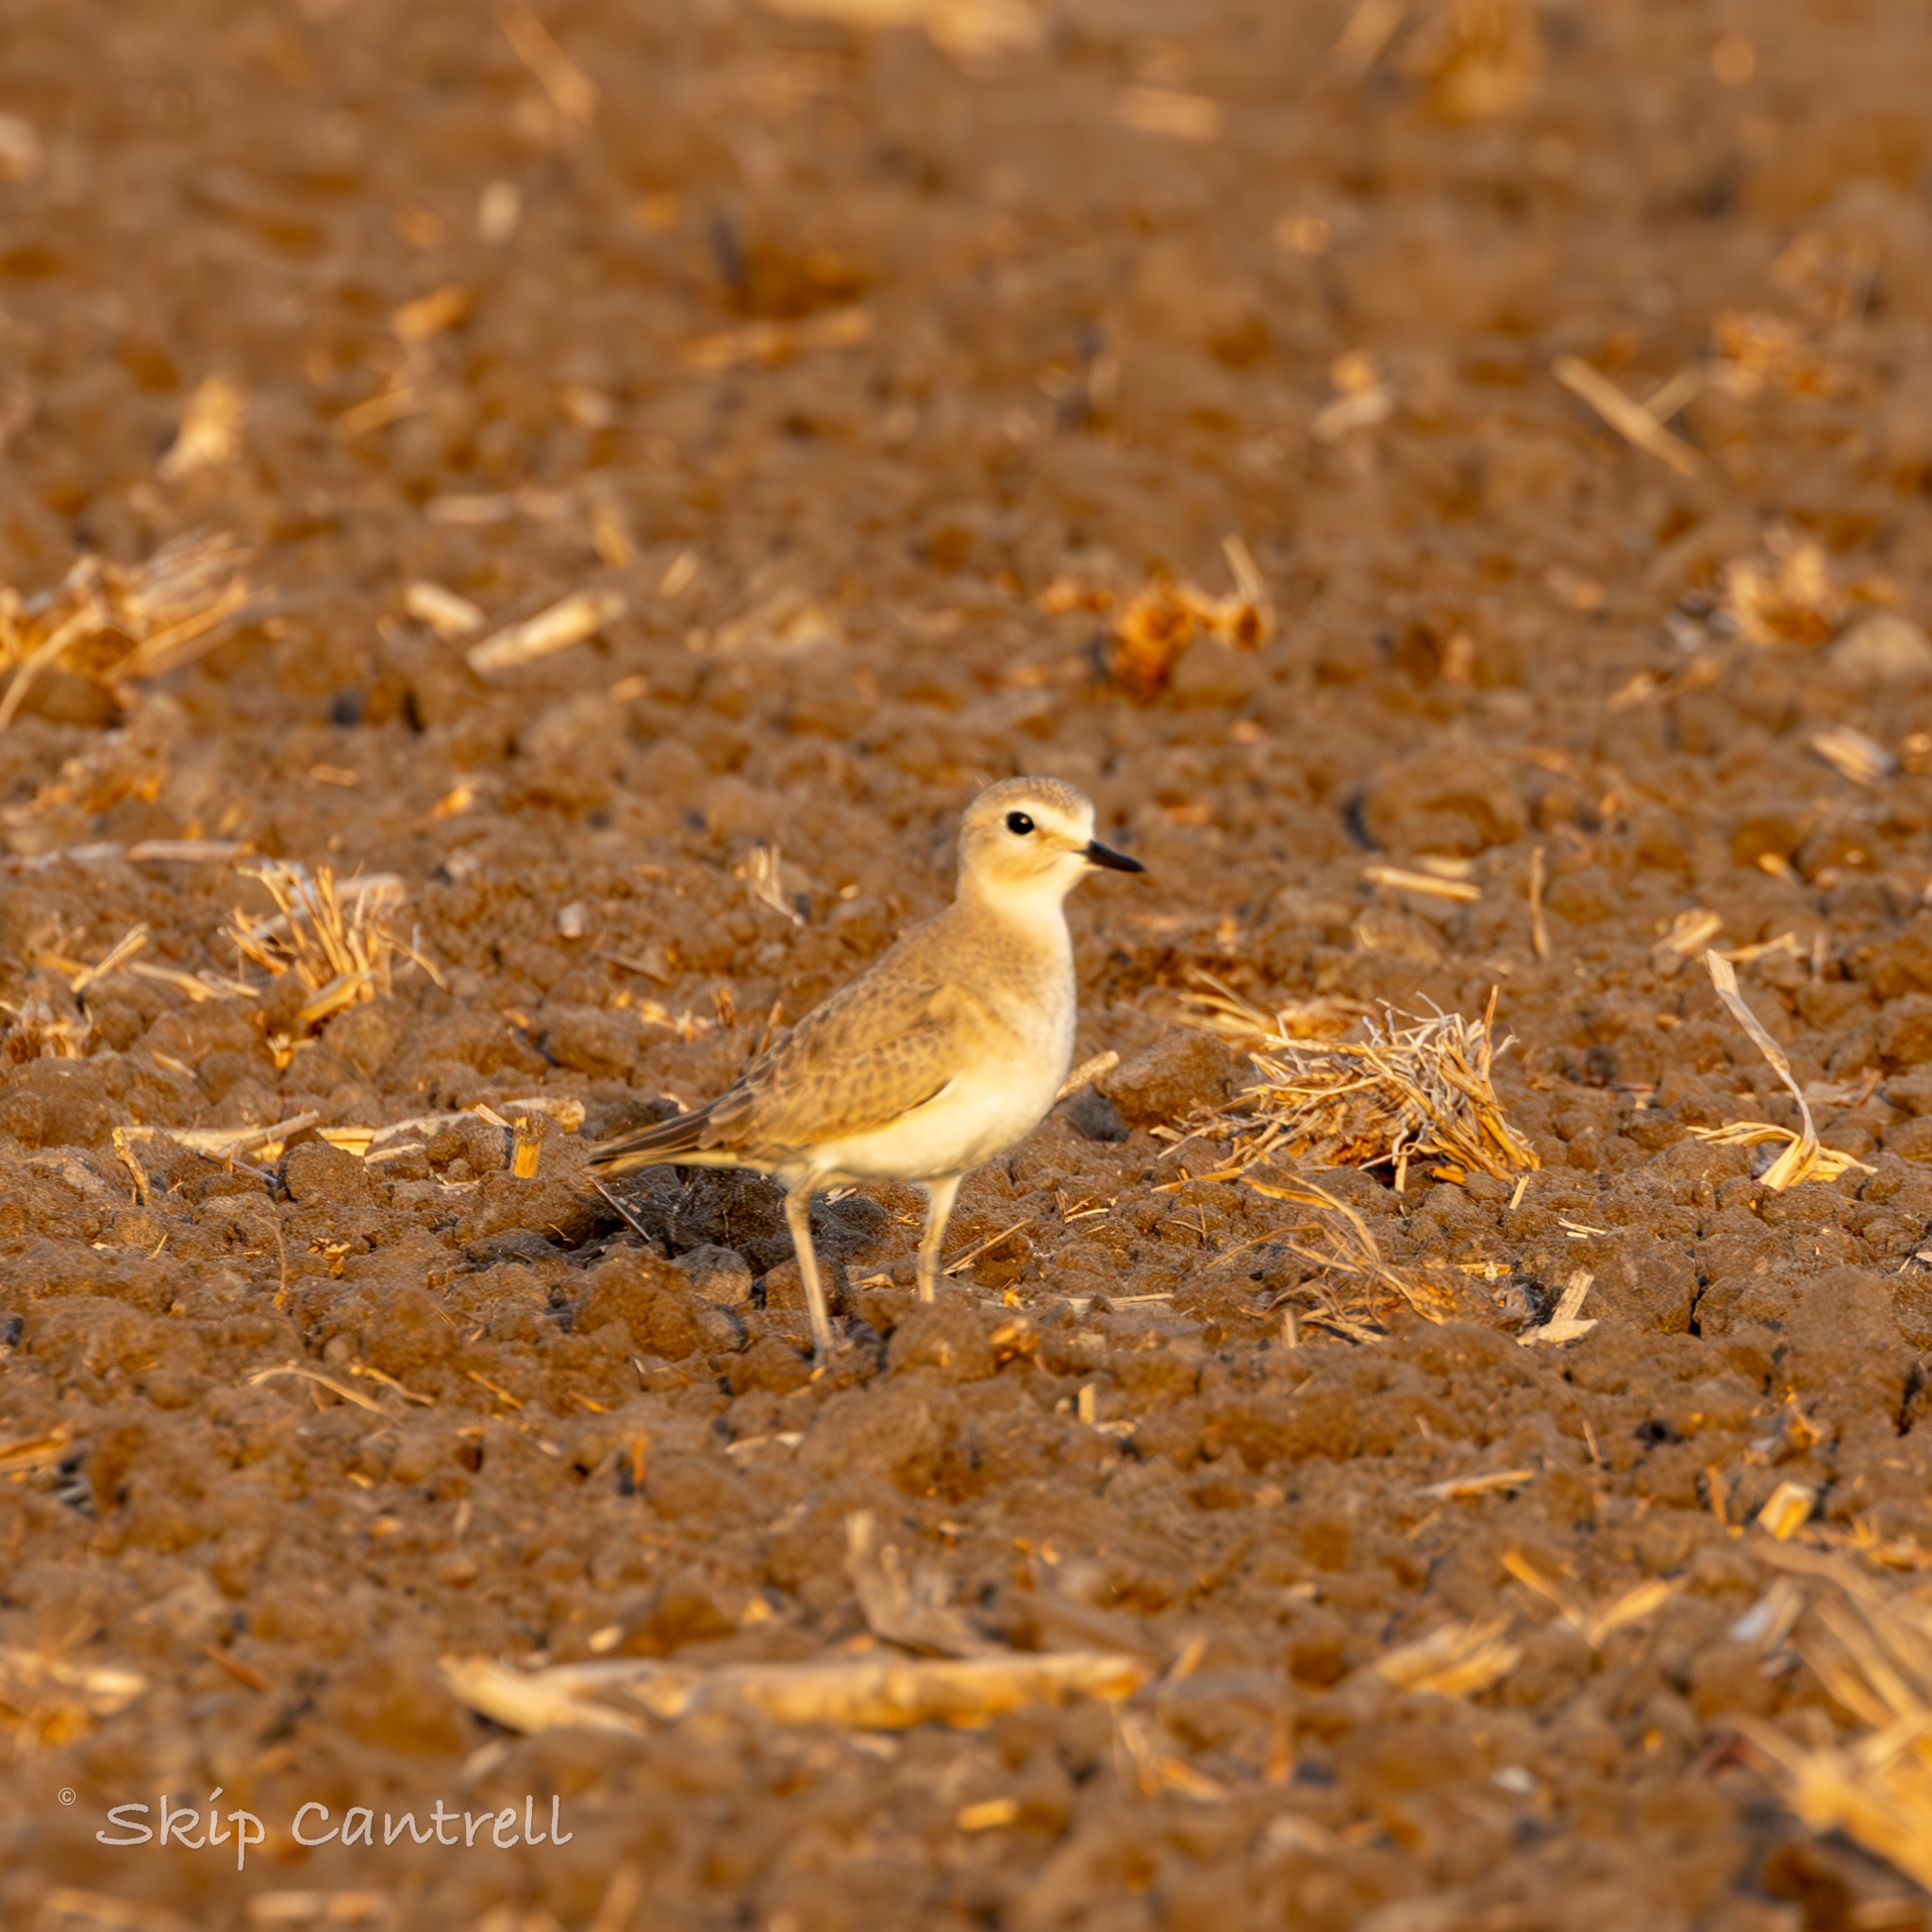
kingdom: Animalia
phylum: Chordata
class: Aves
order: Charadriiformes
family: Charadriidae
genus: Anarhynchus
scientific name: Anarhynchus
